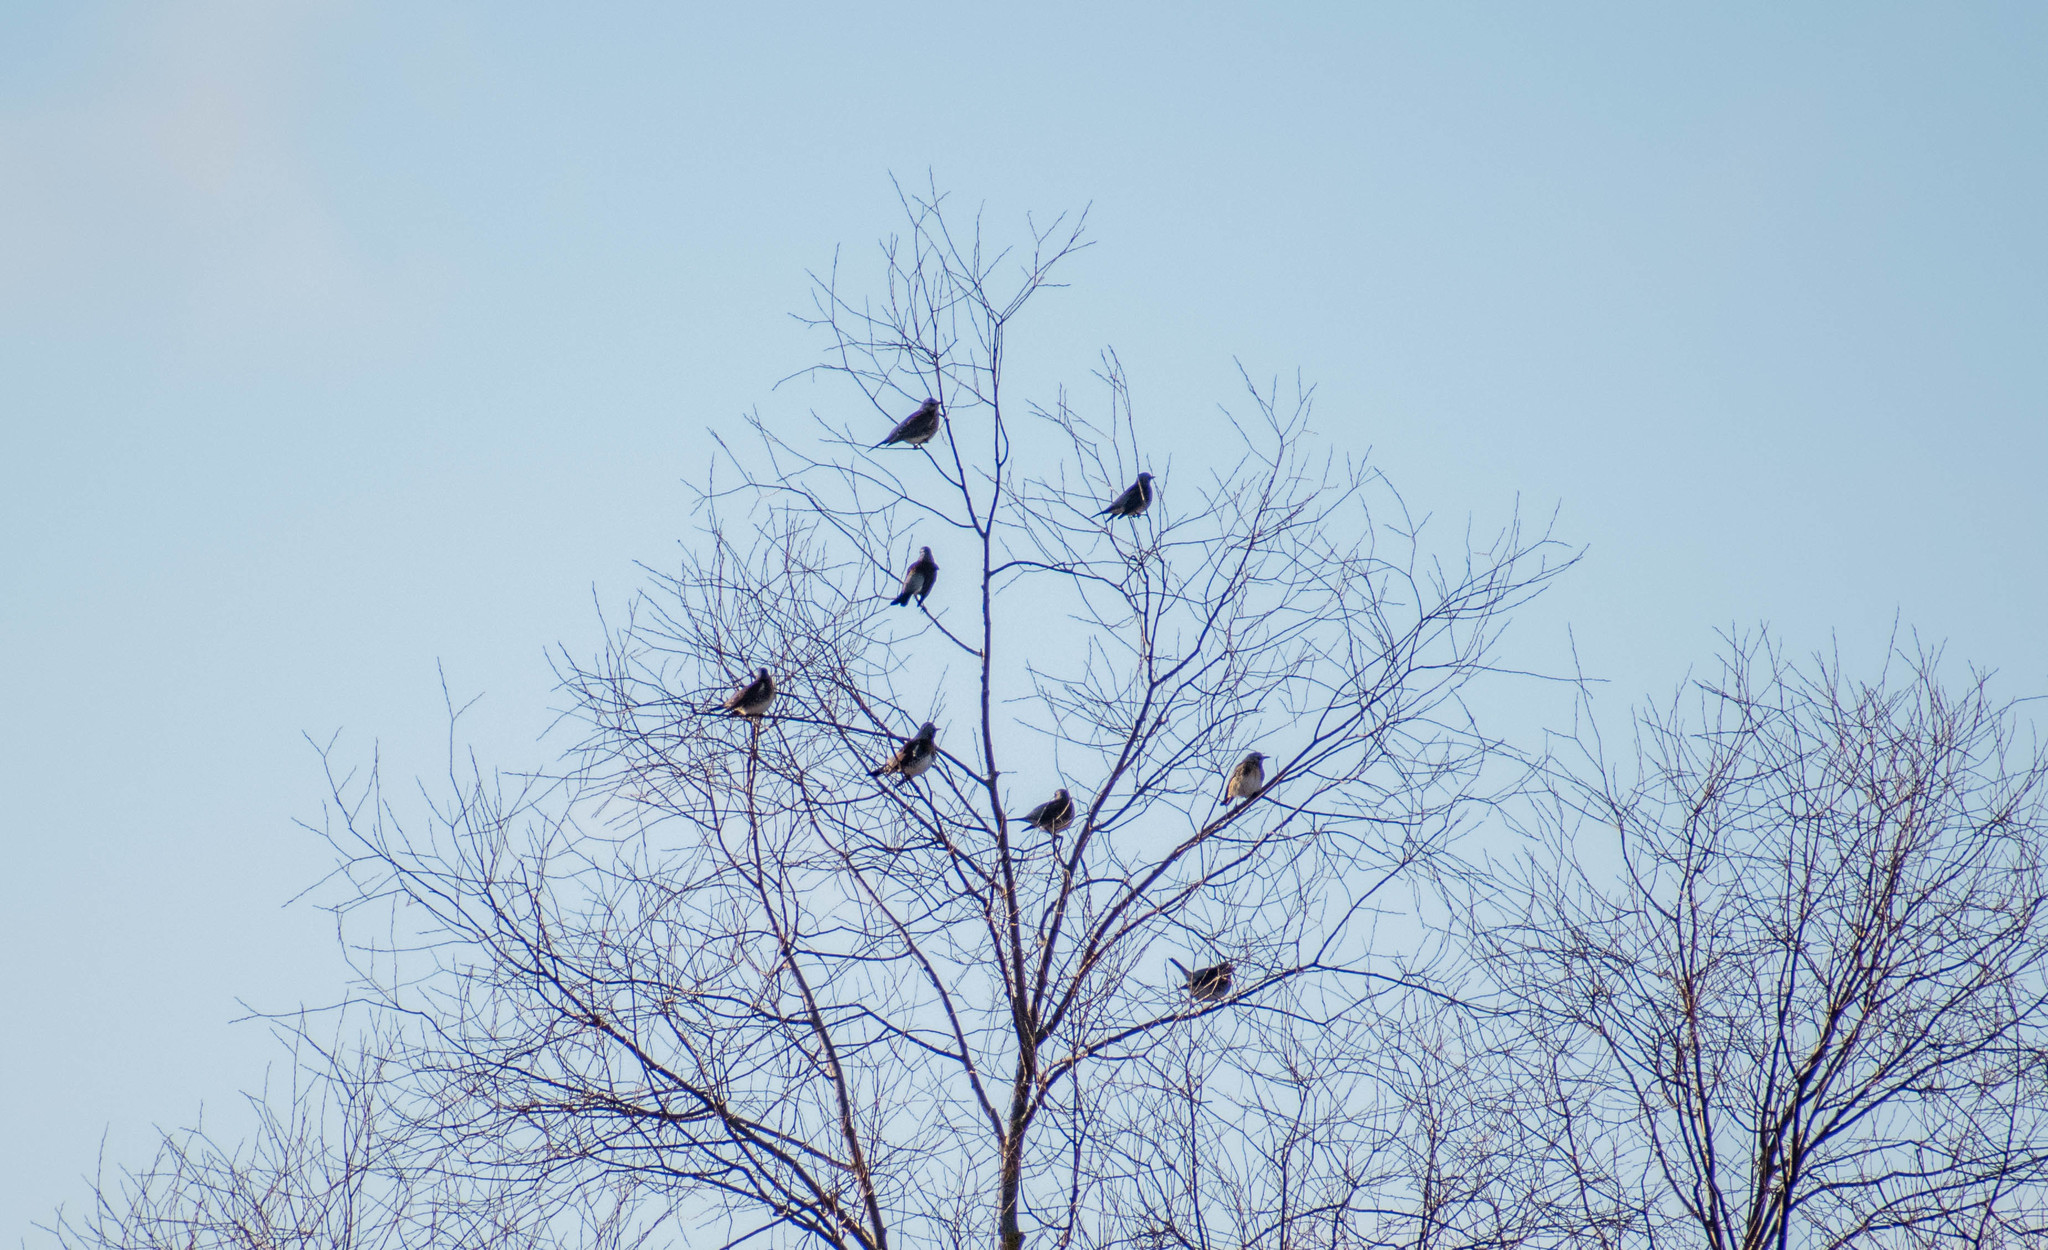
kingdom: Animalia
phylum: Chordata
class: Aves
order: Passeriformes
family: Turdidae
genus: Turdus
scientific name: Turdus pilaris
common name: Fieldfare
